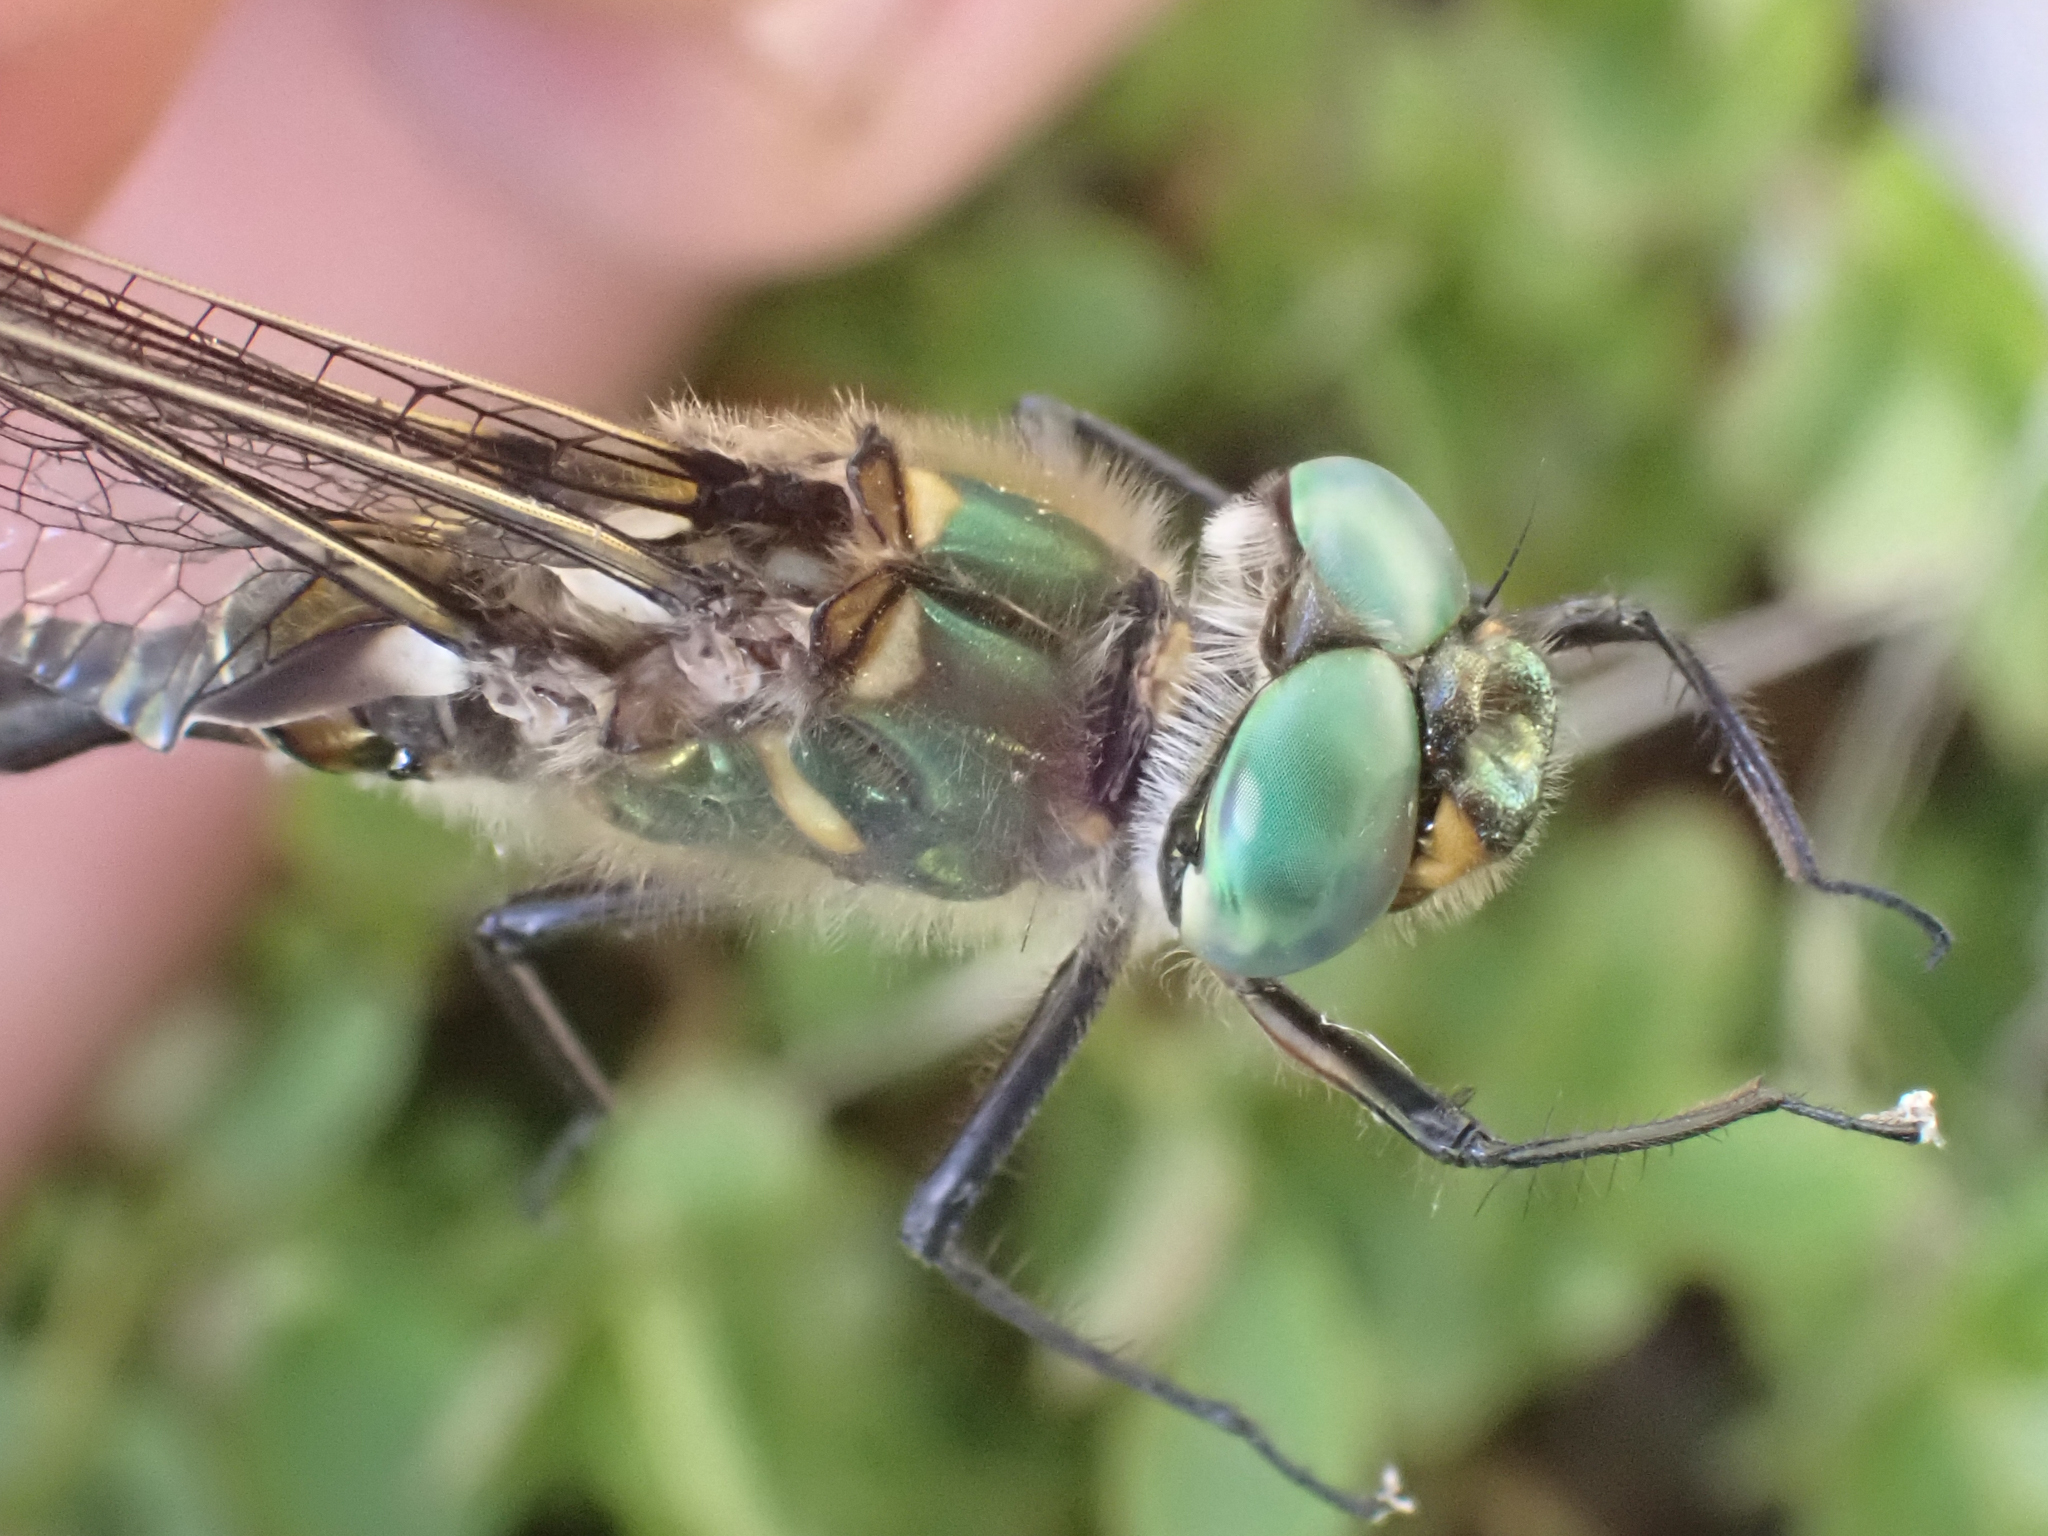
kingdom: Animalia
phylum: Arthropoda
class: Insecta
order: Odonata
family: Corduliidae
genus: Somatochlora
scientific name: Somatochlora hudsonica
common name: Hudsonian emerald
